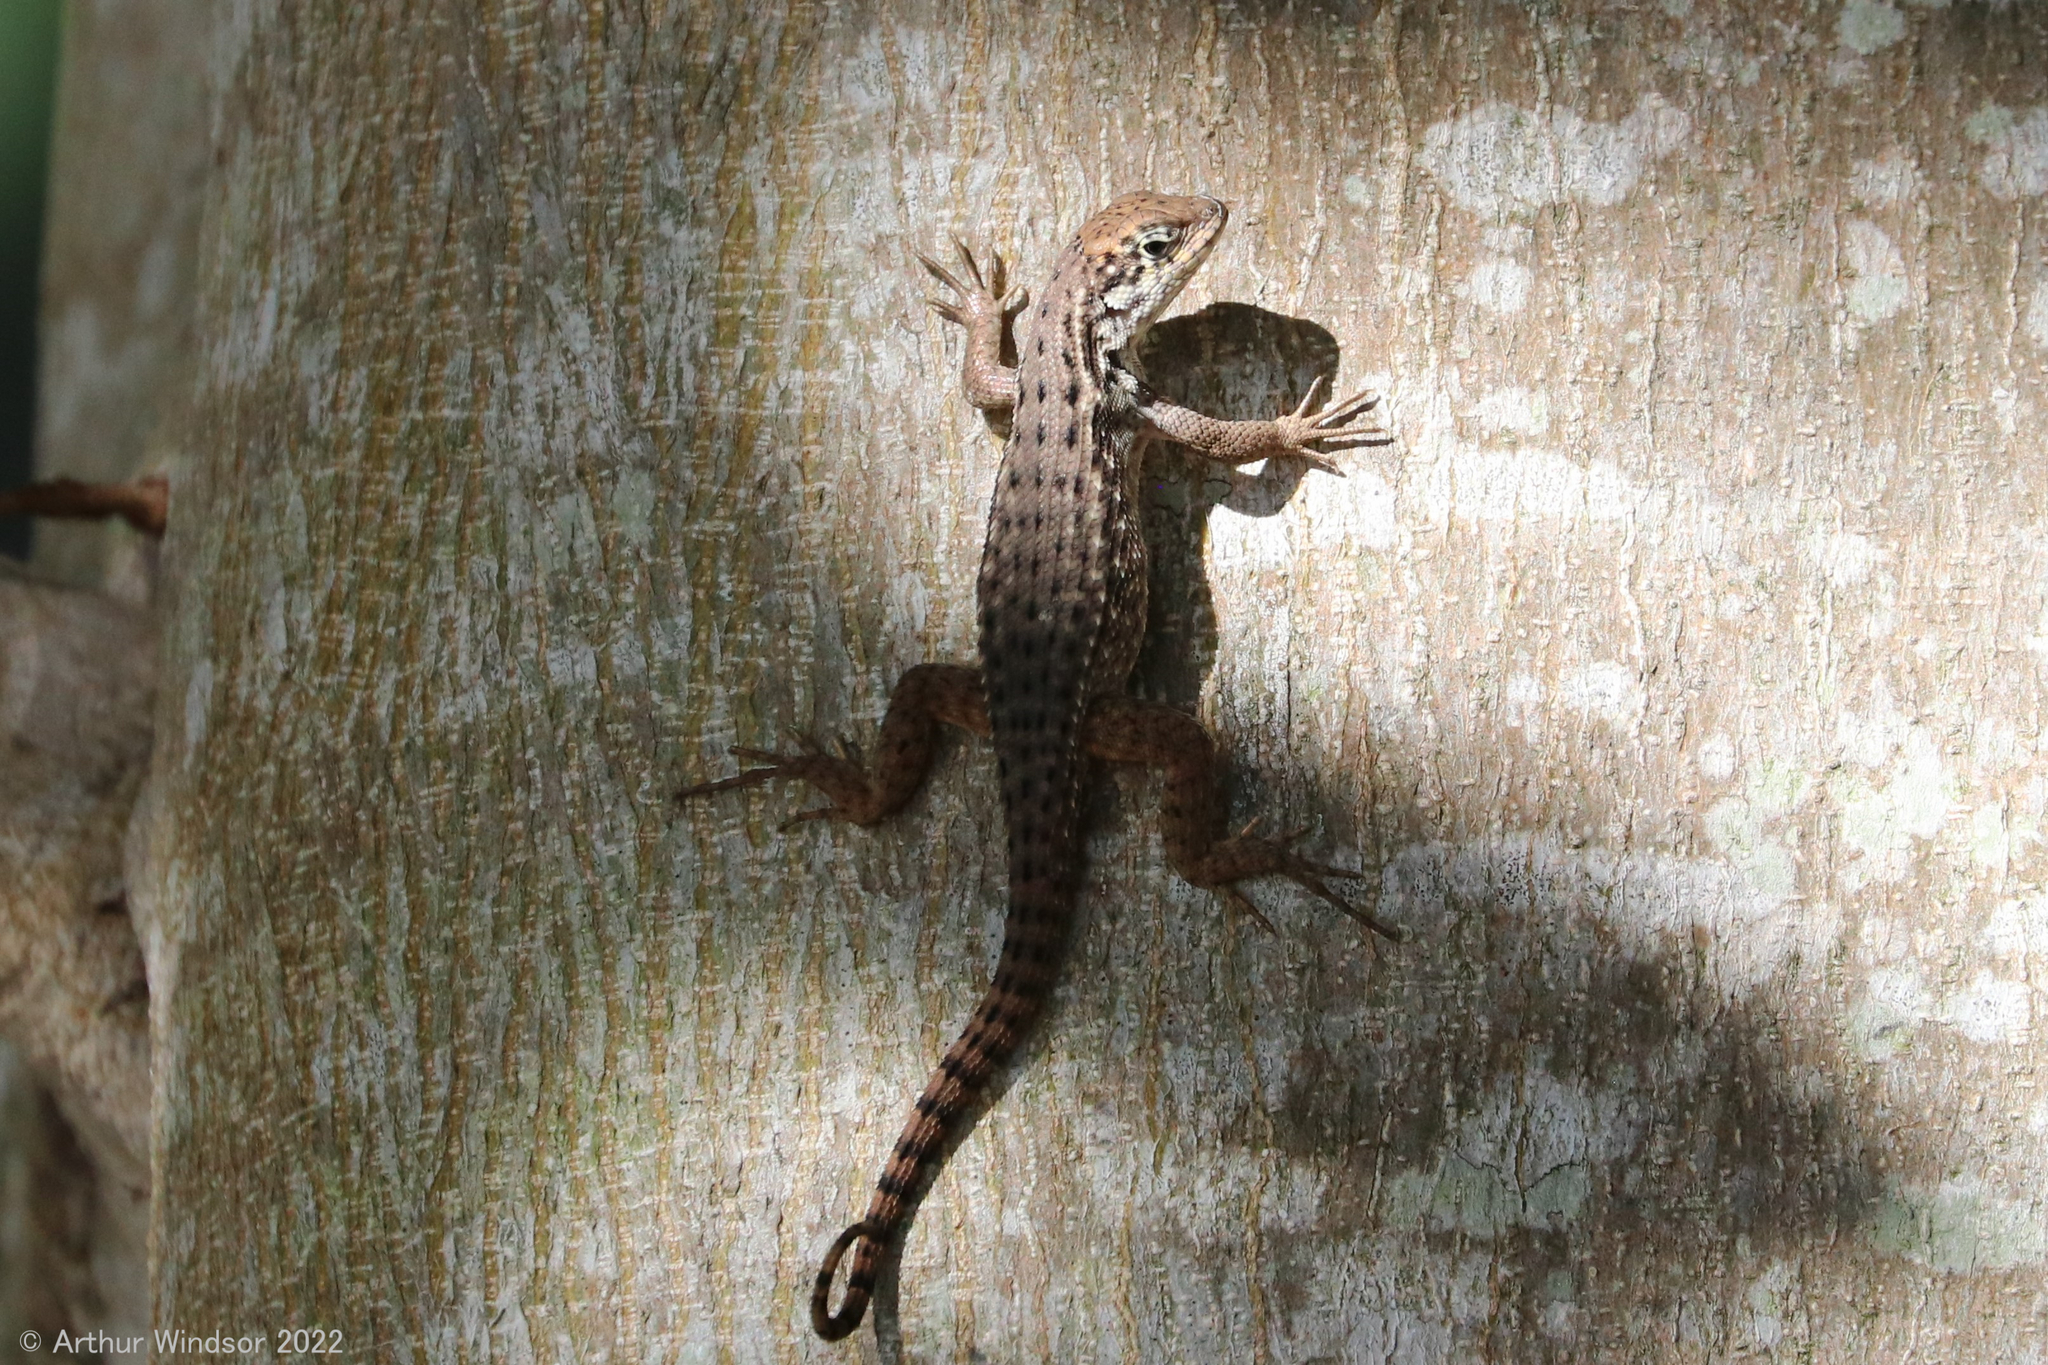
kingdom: Animalia
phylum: Chordata
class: Squamata
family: Leiocephalidae
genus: Leiocephalus
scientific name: Leiocephalus carinatus
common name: Northern curly-tailed lizard
